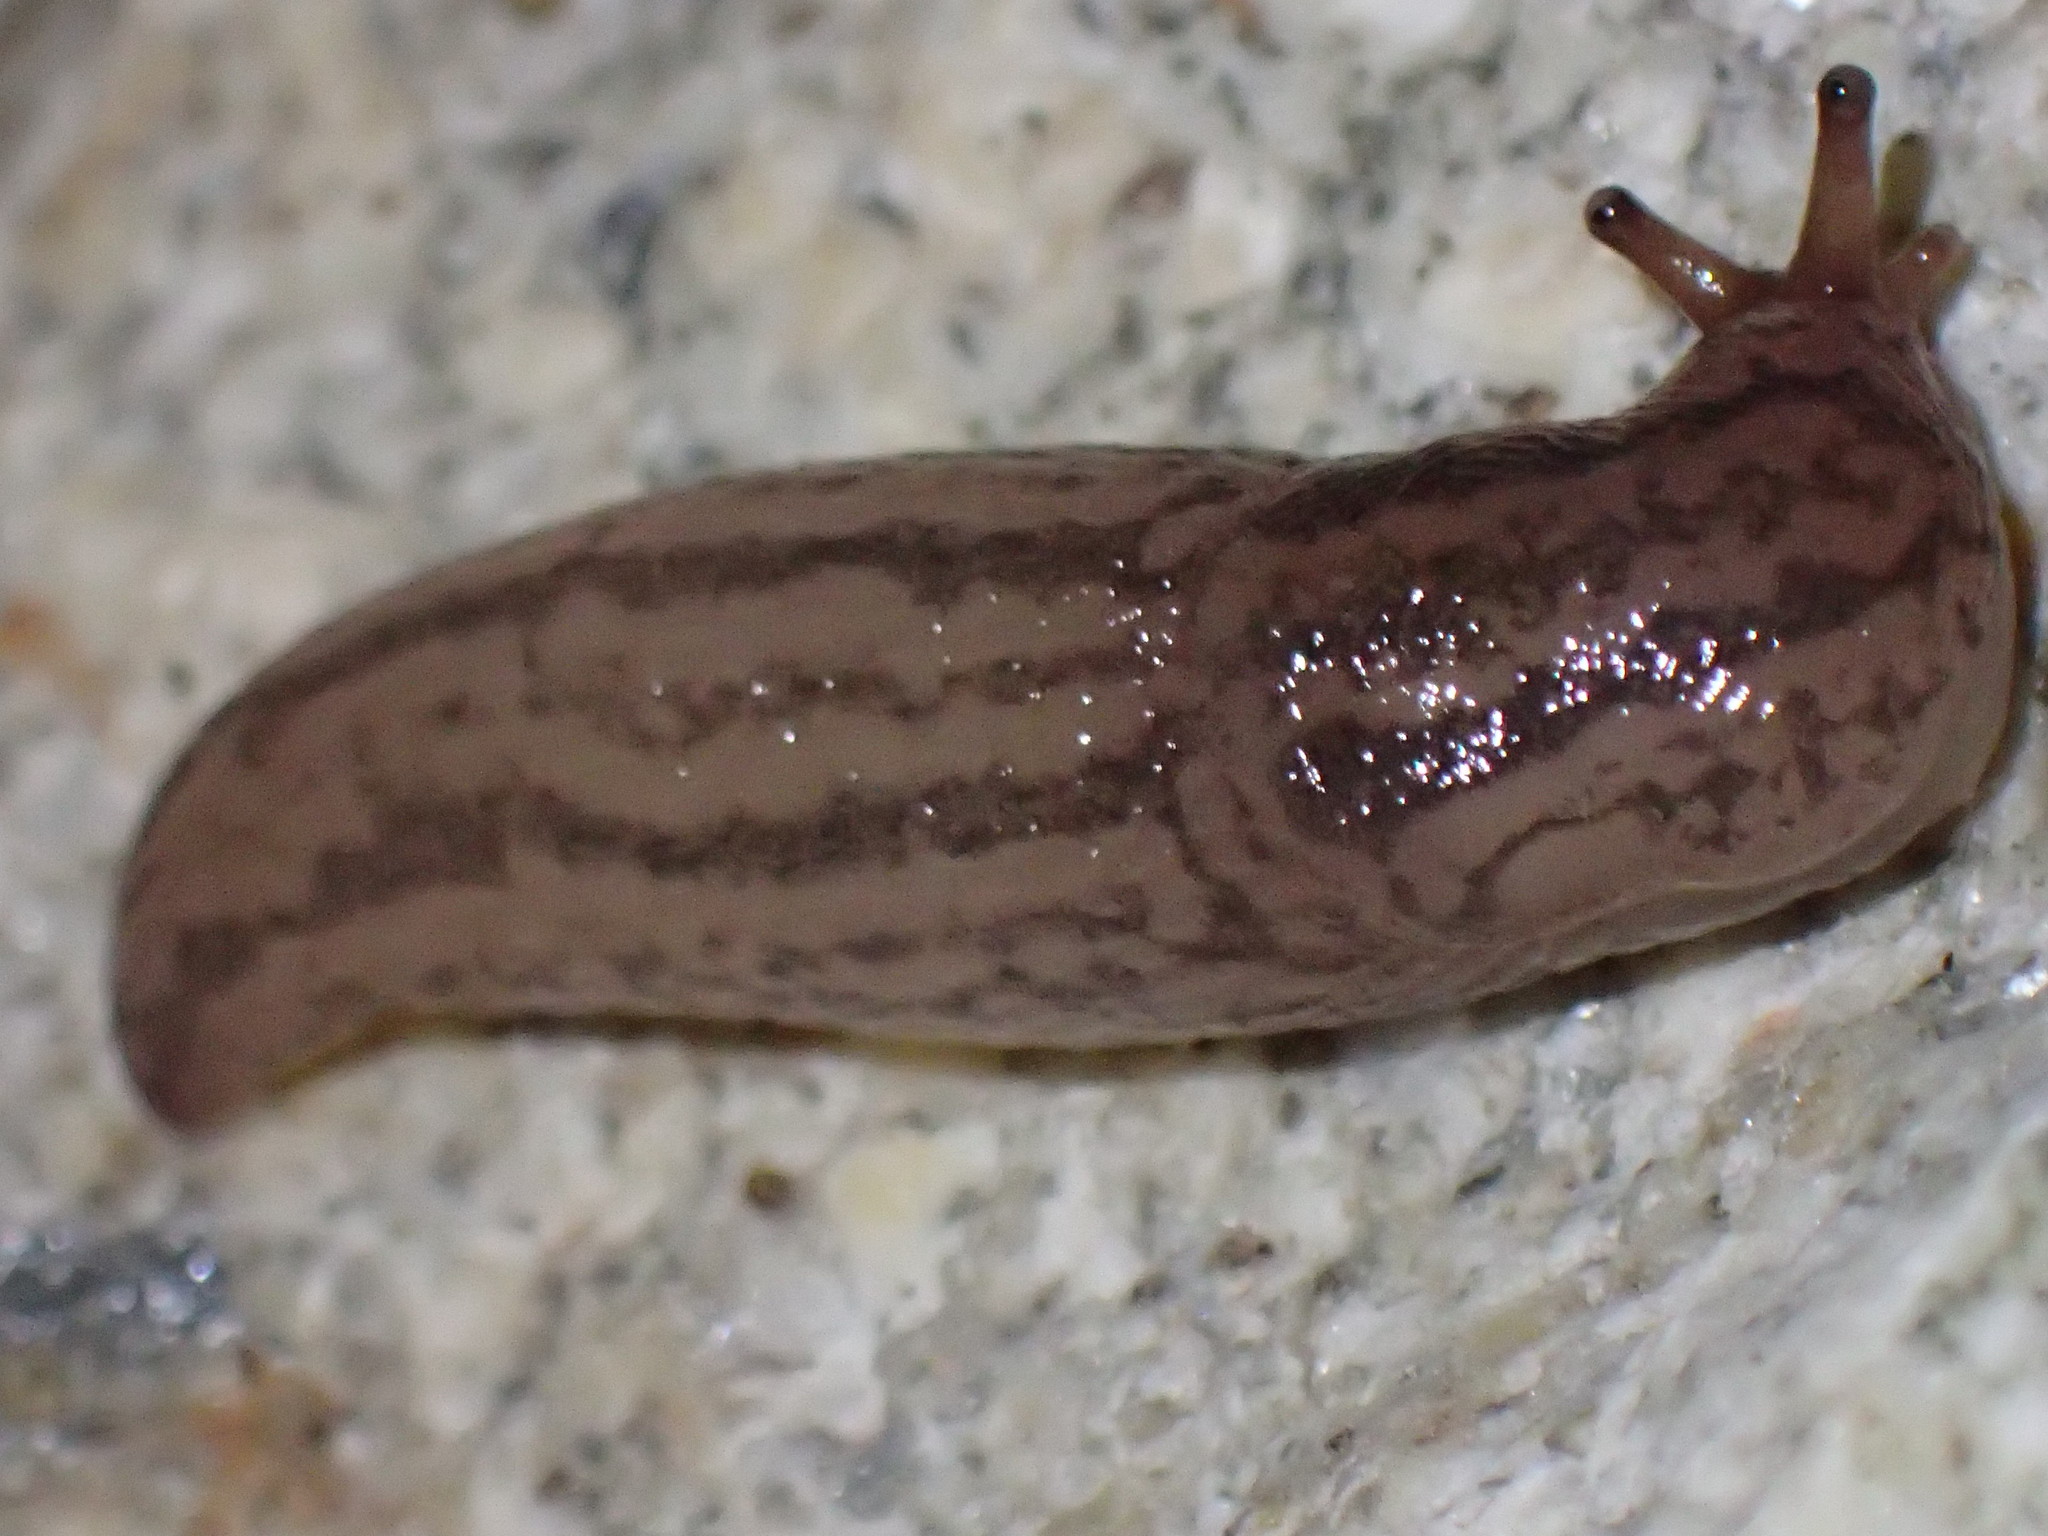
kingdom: Animalia
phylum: Mollusca
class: Gastropoda
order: Stylommatophora
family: Limacidae
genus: Ambigolimax
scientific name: Ambigolimax
